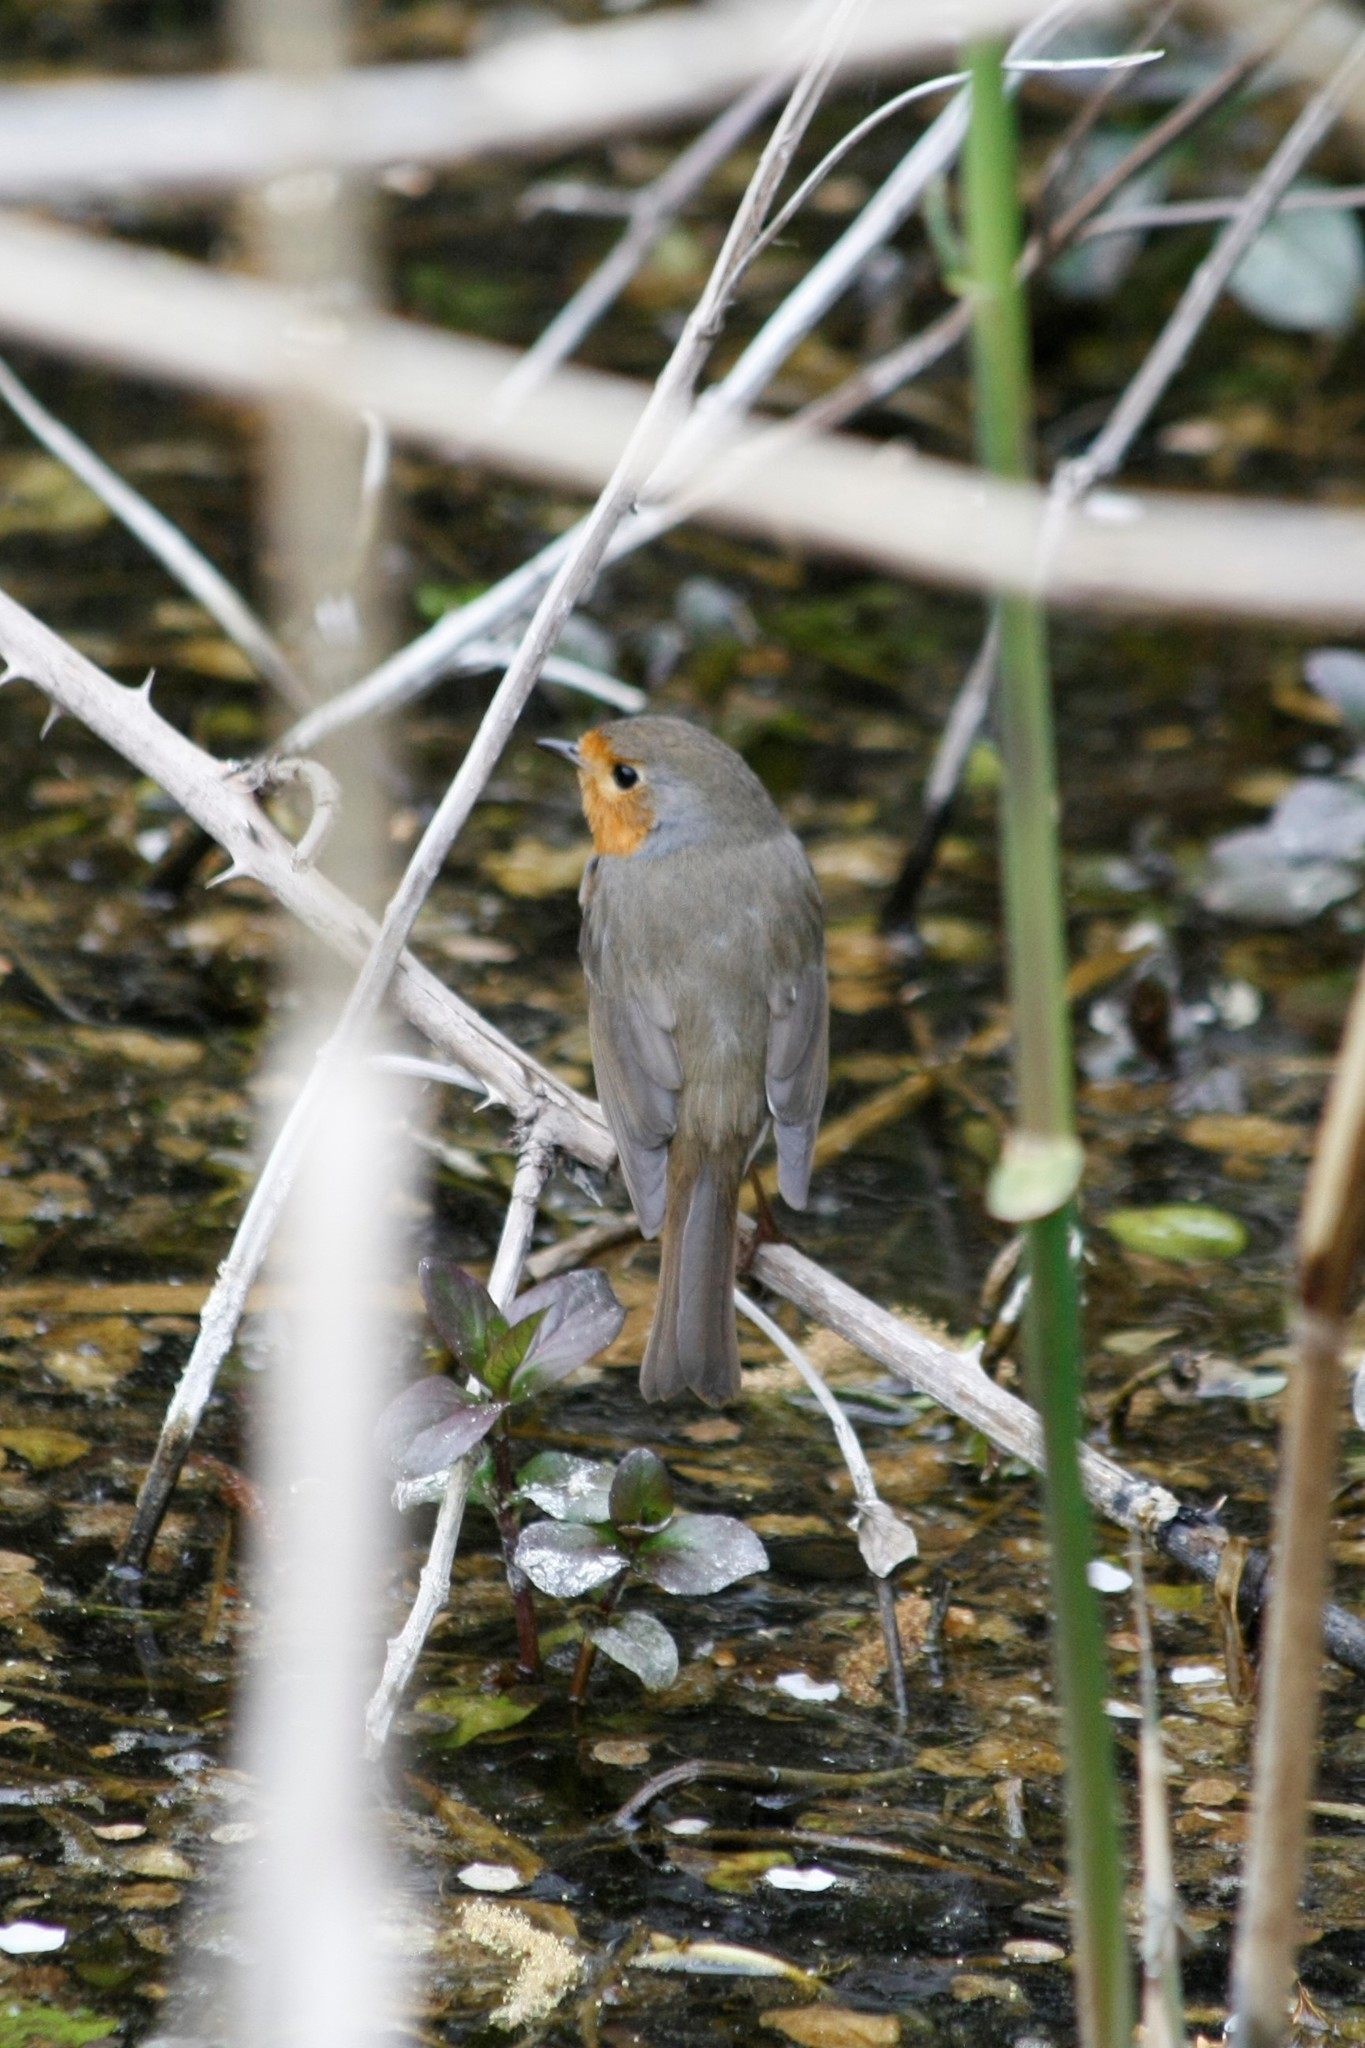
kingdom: Animalia
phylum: Chordata
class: Aves
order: Passeriformes
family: Muscicapidae
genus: Erithacus
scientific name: Erithacus rubecula
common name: European robin
